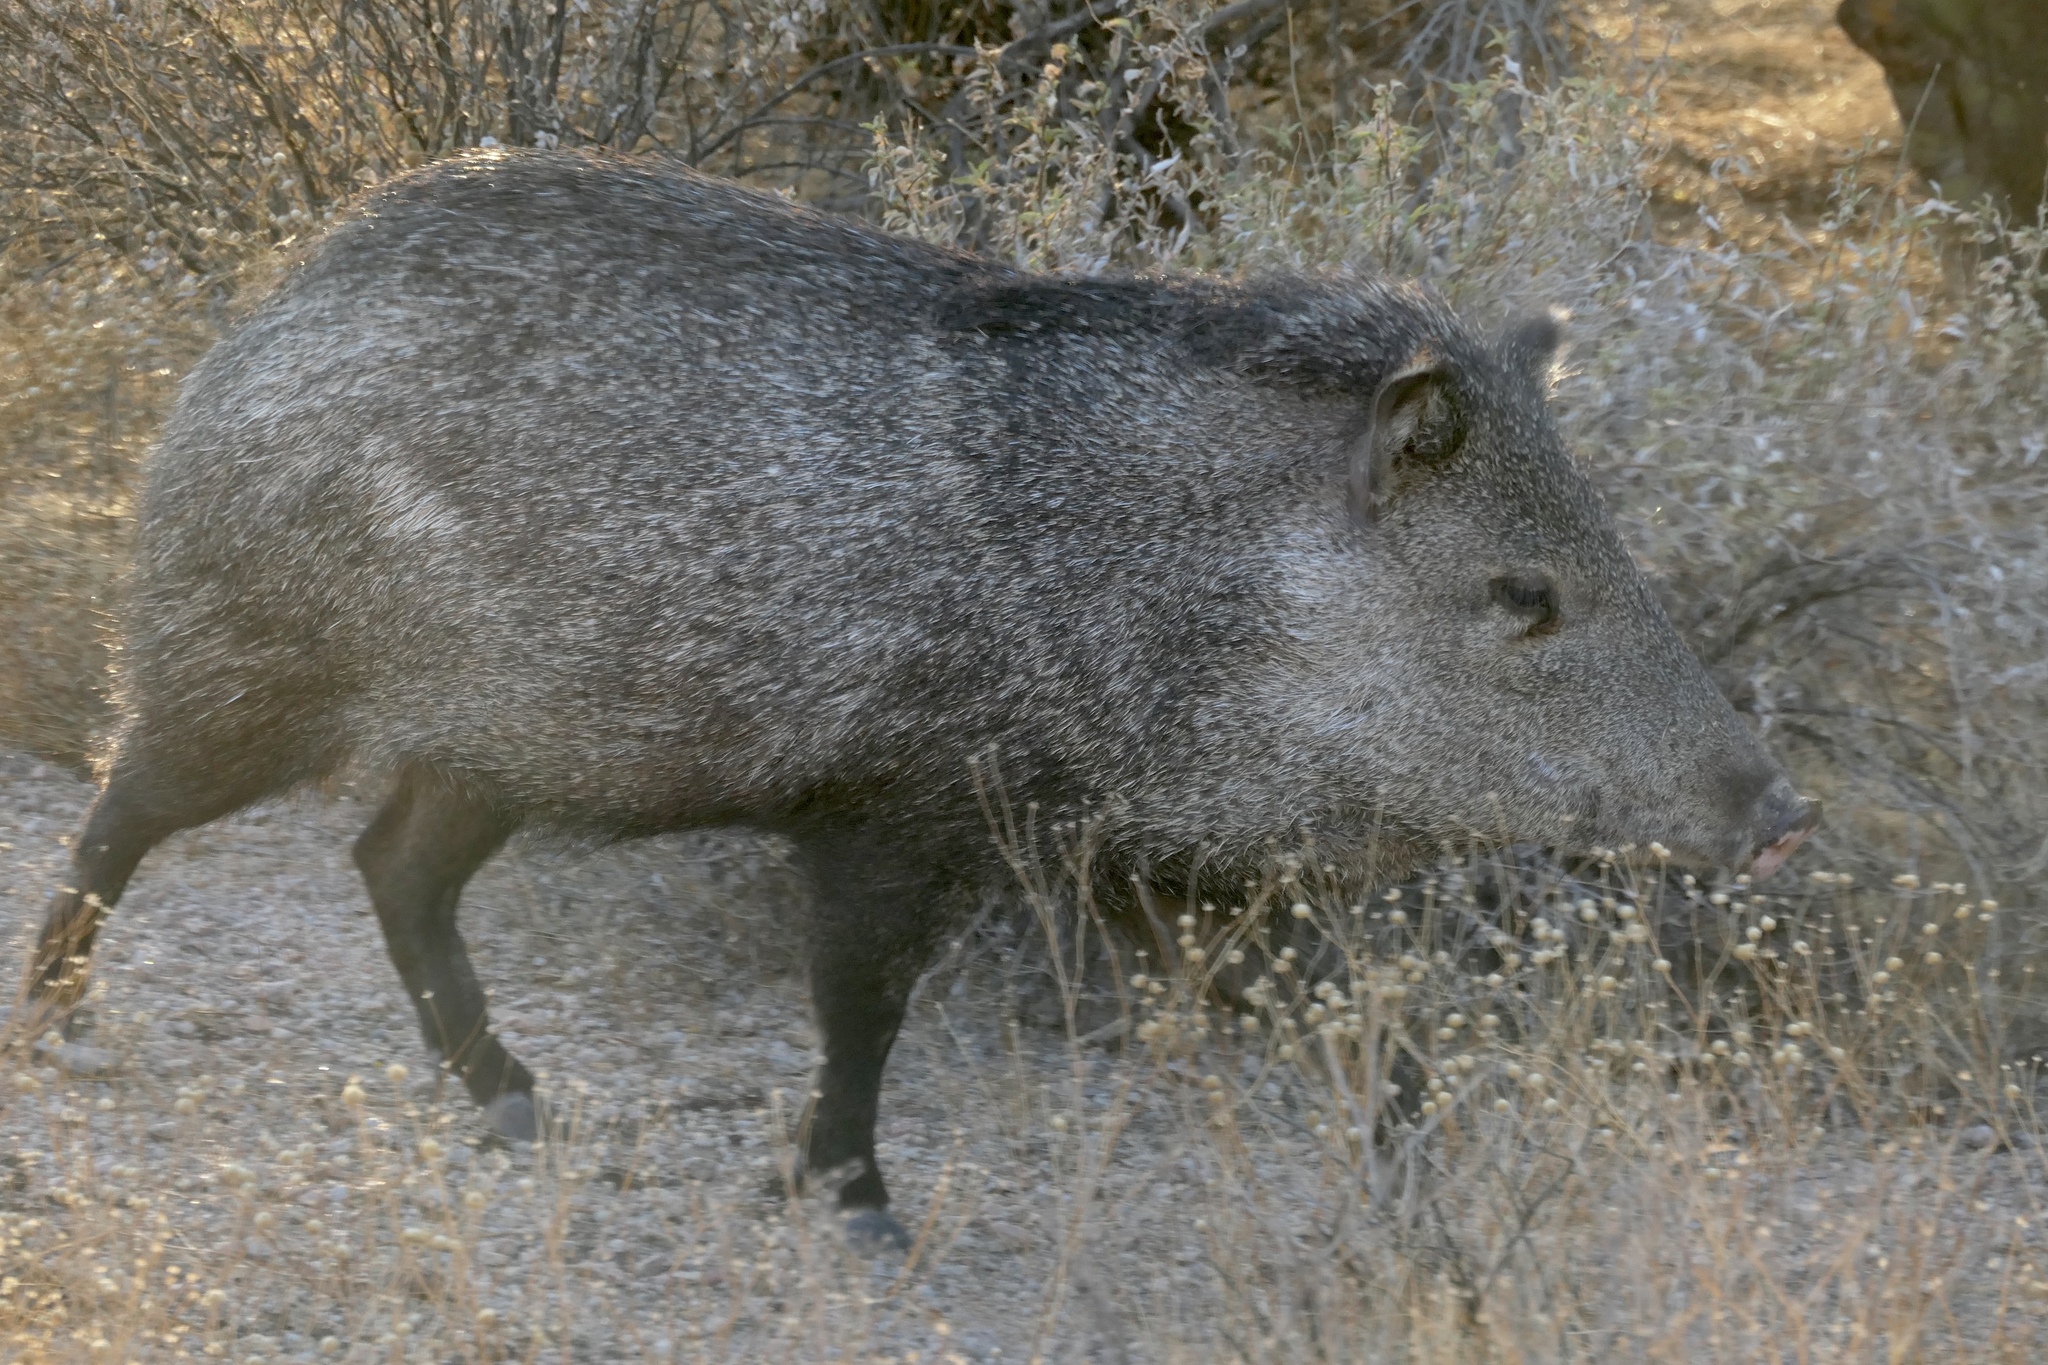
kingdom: Animalia
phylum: Chordata
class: Mammalia
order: Artiodactyla
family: Tayassuidae
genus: Pecari
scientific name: Pecari tajacu
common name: Collared peccary
